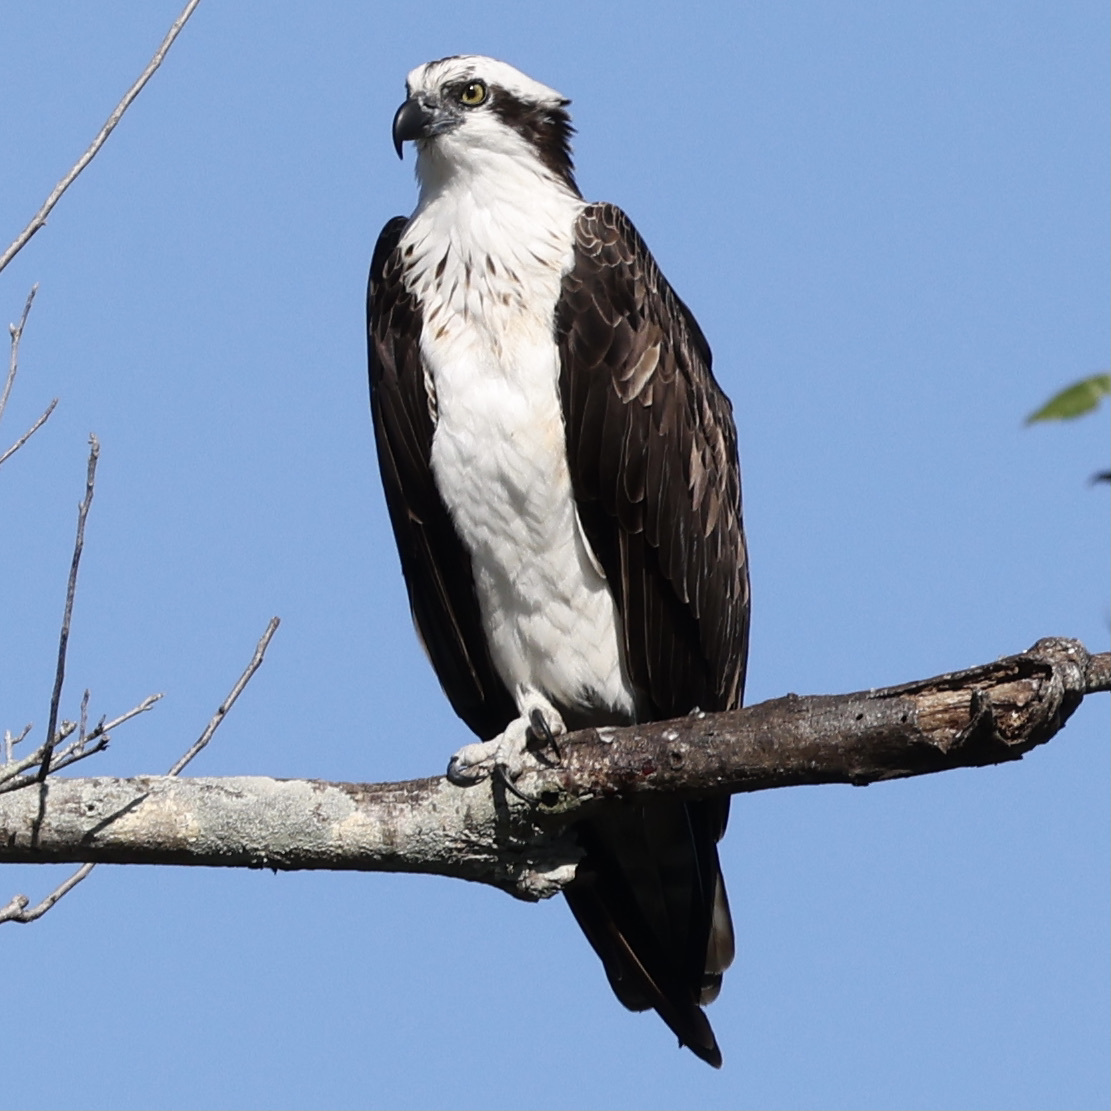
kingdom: Animalia
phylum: Chordata
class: Aves
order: Accipitriformes
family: Pandionidae
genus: Pandion
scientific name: Pandion haliaetus
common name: Osprey
